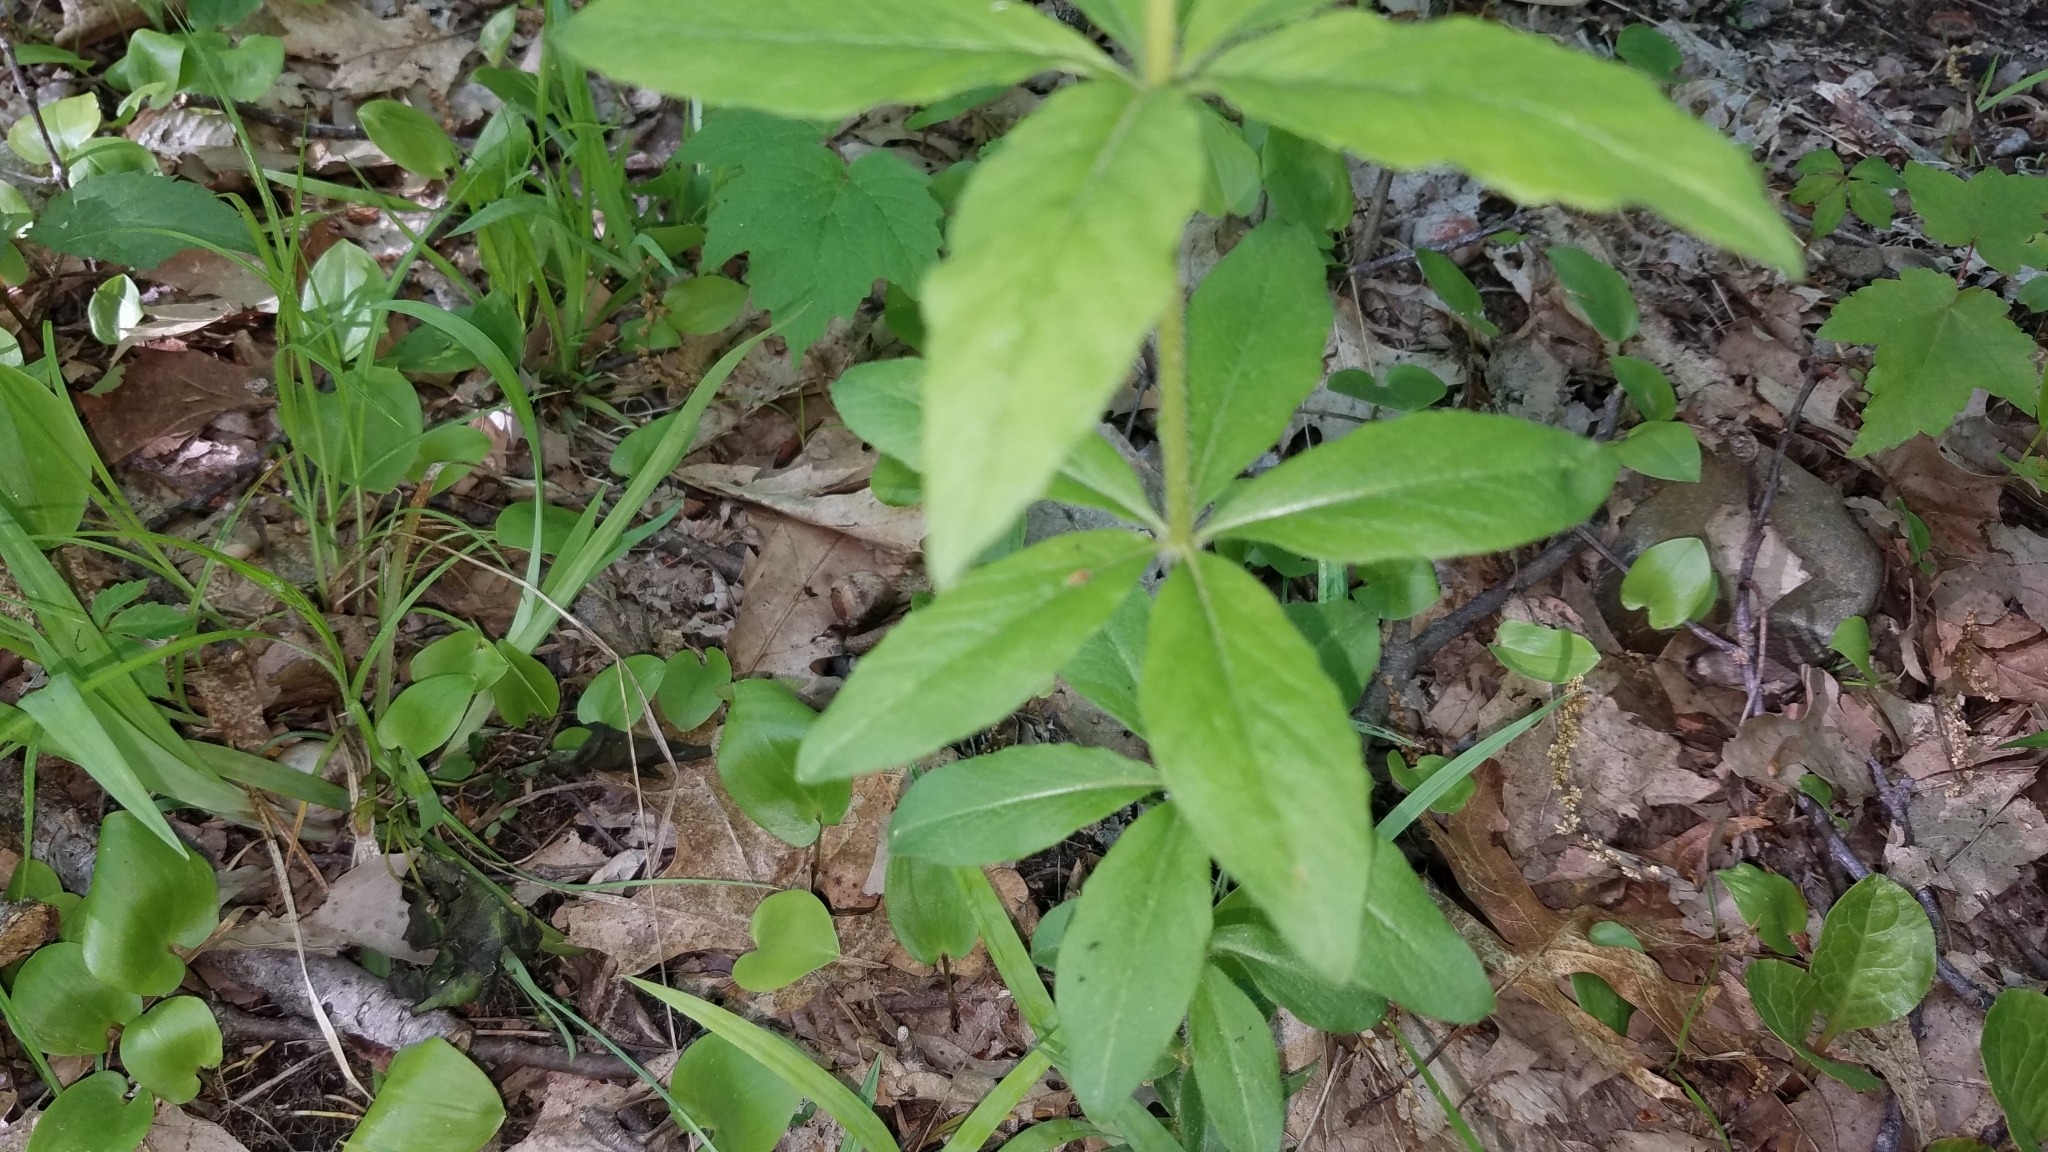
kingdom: Plantae
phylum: Tracheophyta
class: Magnoliopsida
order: Ericales
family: Primulaceae
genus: Lysimachia
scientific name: Lysimachia quadrifolia
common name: Whorled loosestrife
